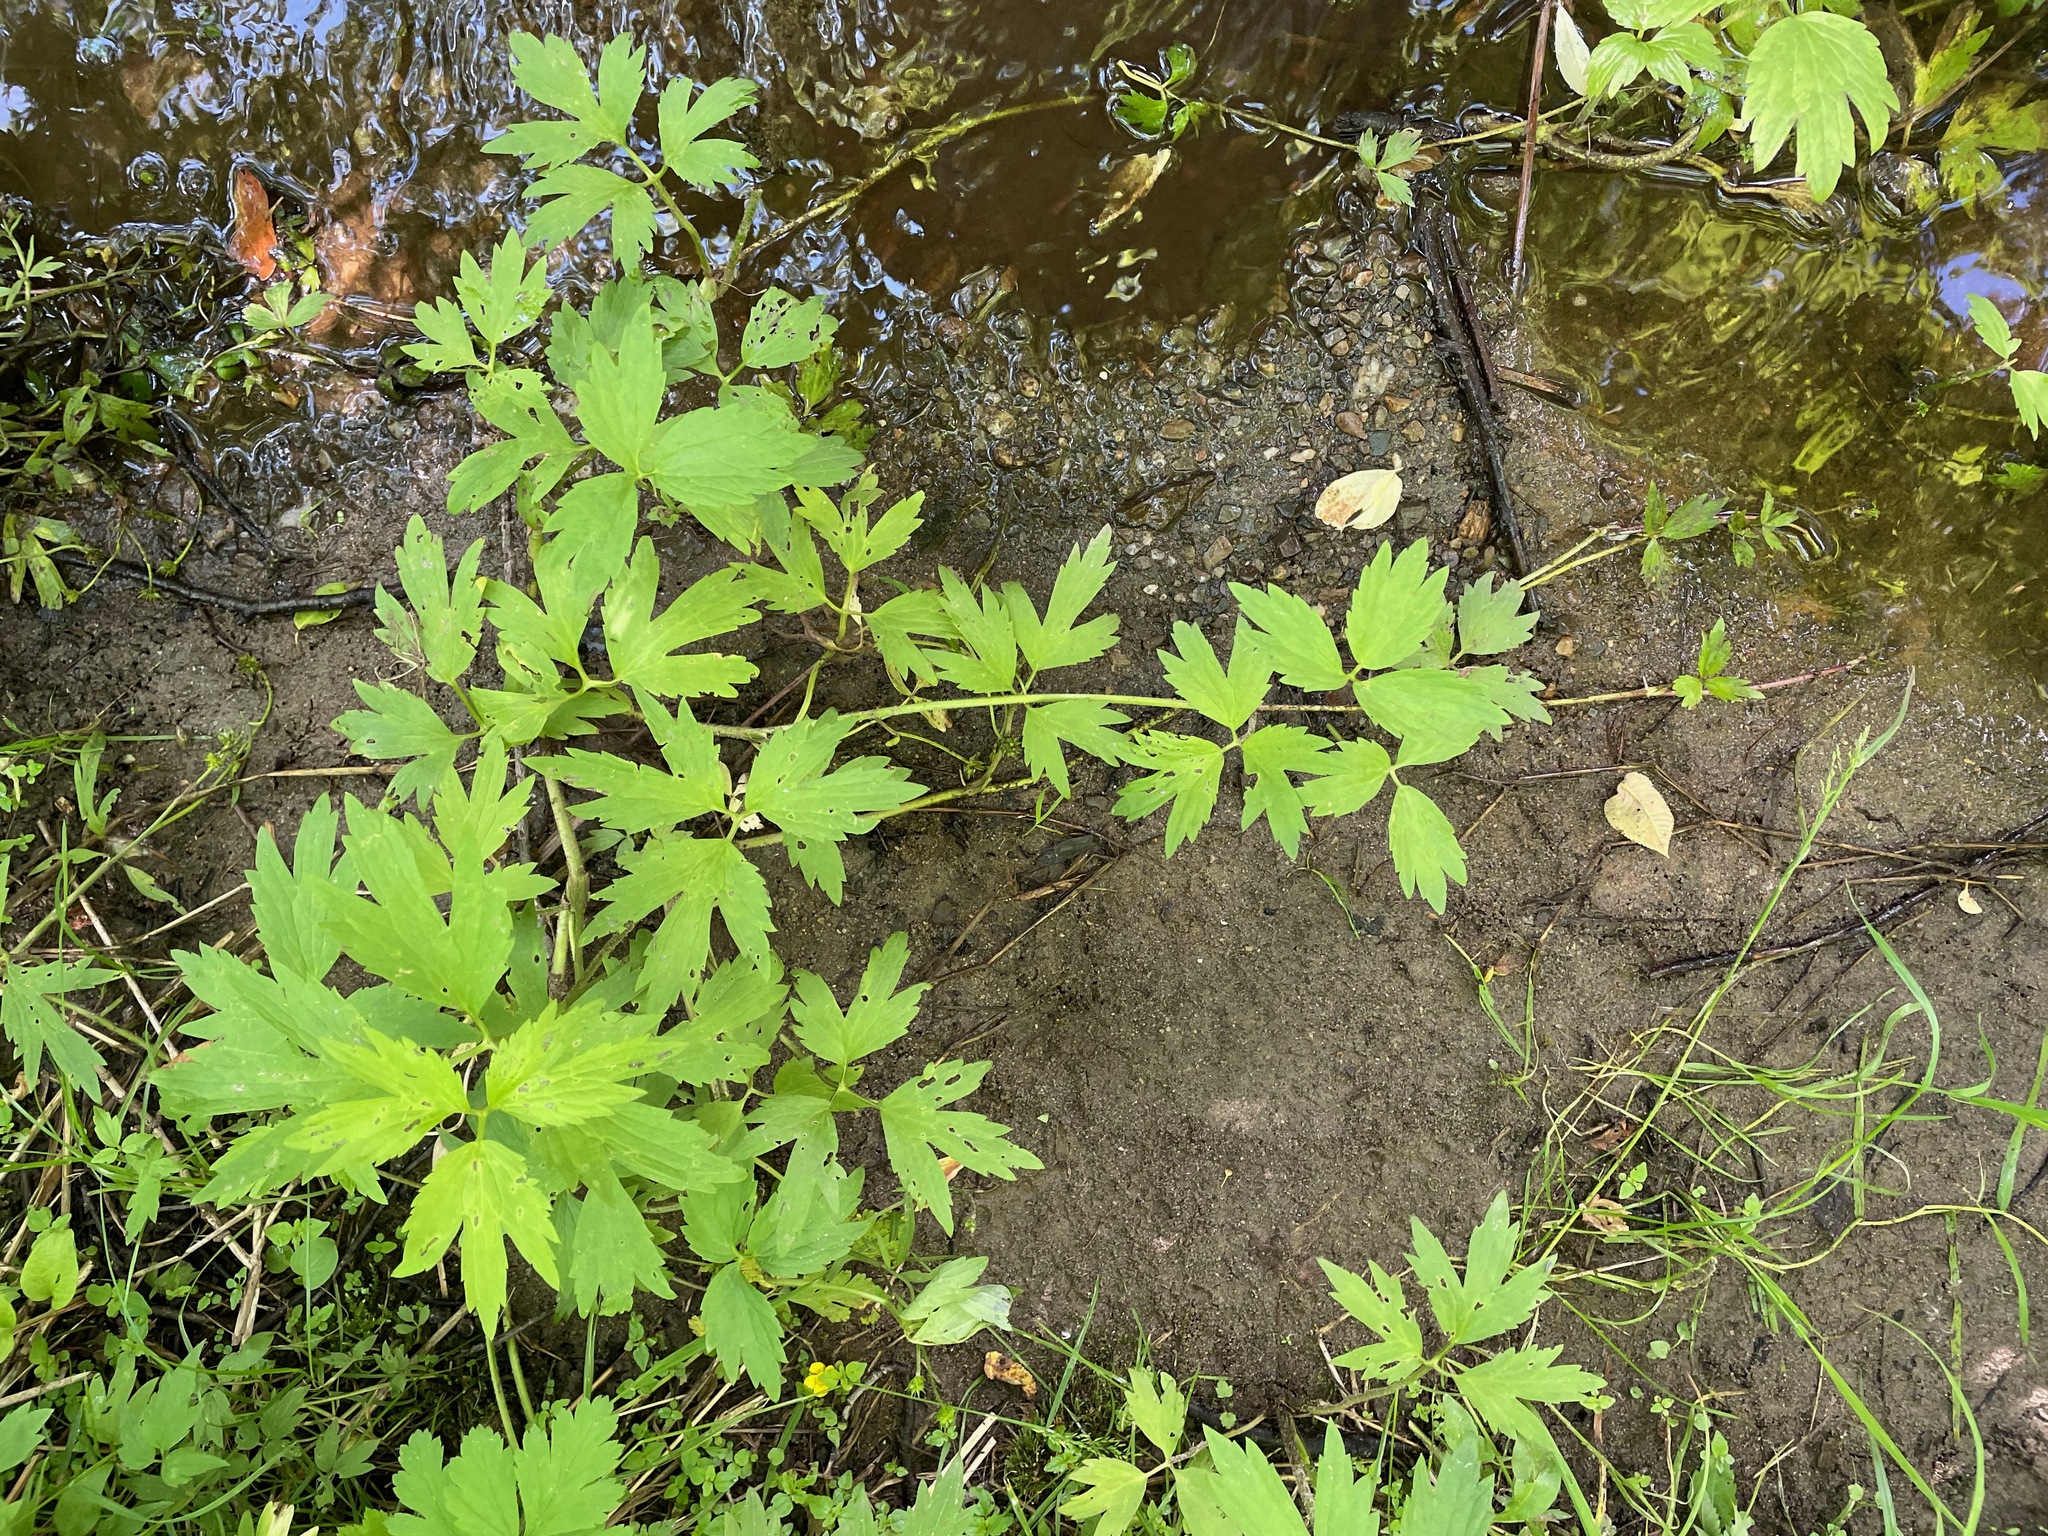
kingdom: Plantae
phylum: Tracheophyta
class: Magnoliopsida
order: Ranunculales
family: Ranunculaceae
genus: Ranunculus
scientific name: Ranunculus hispidus
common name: Bristly buttercup
